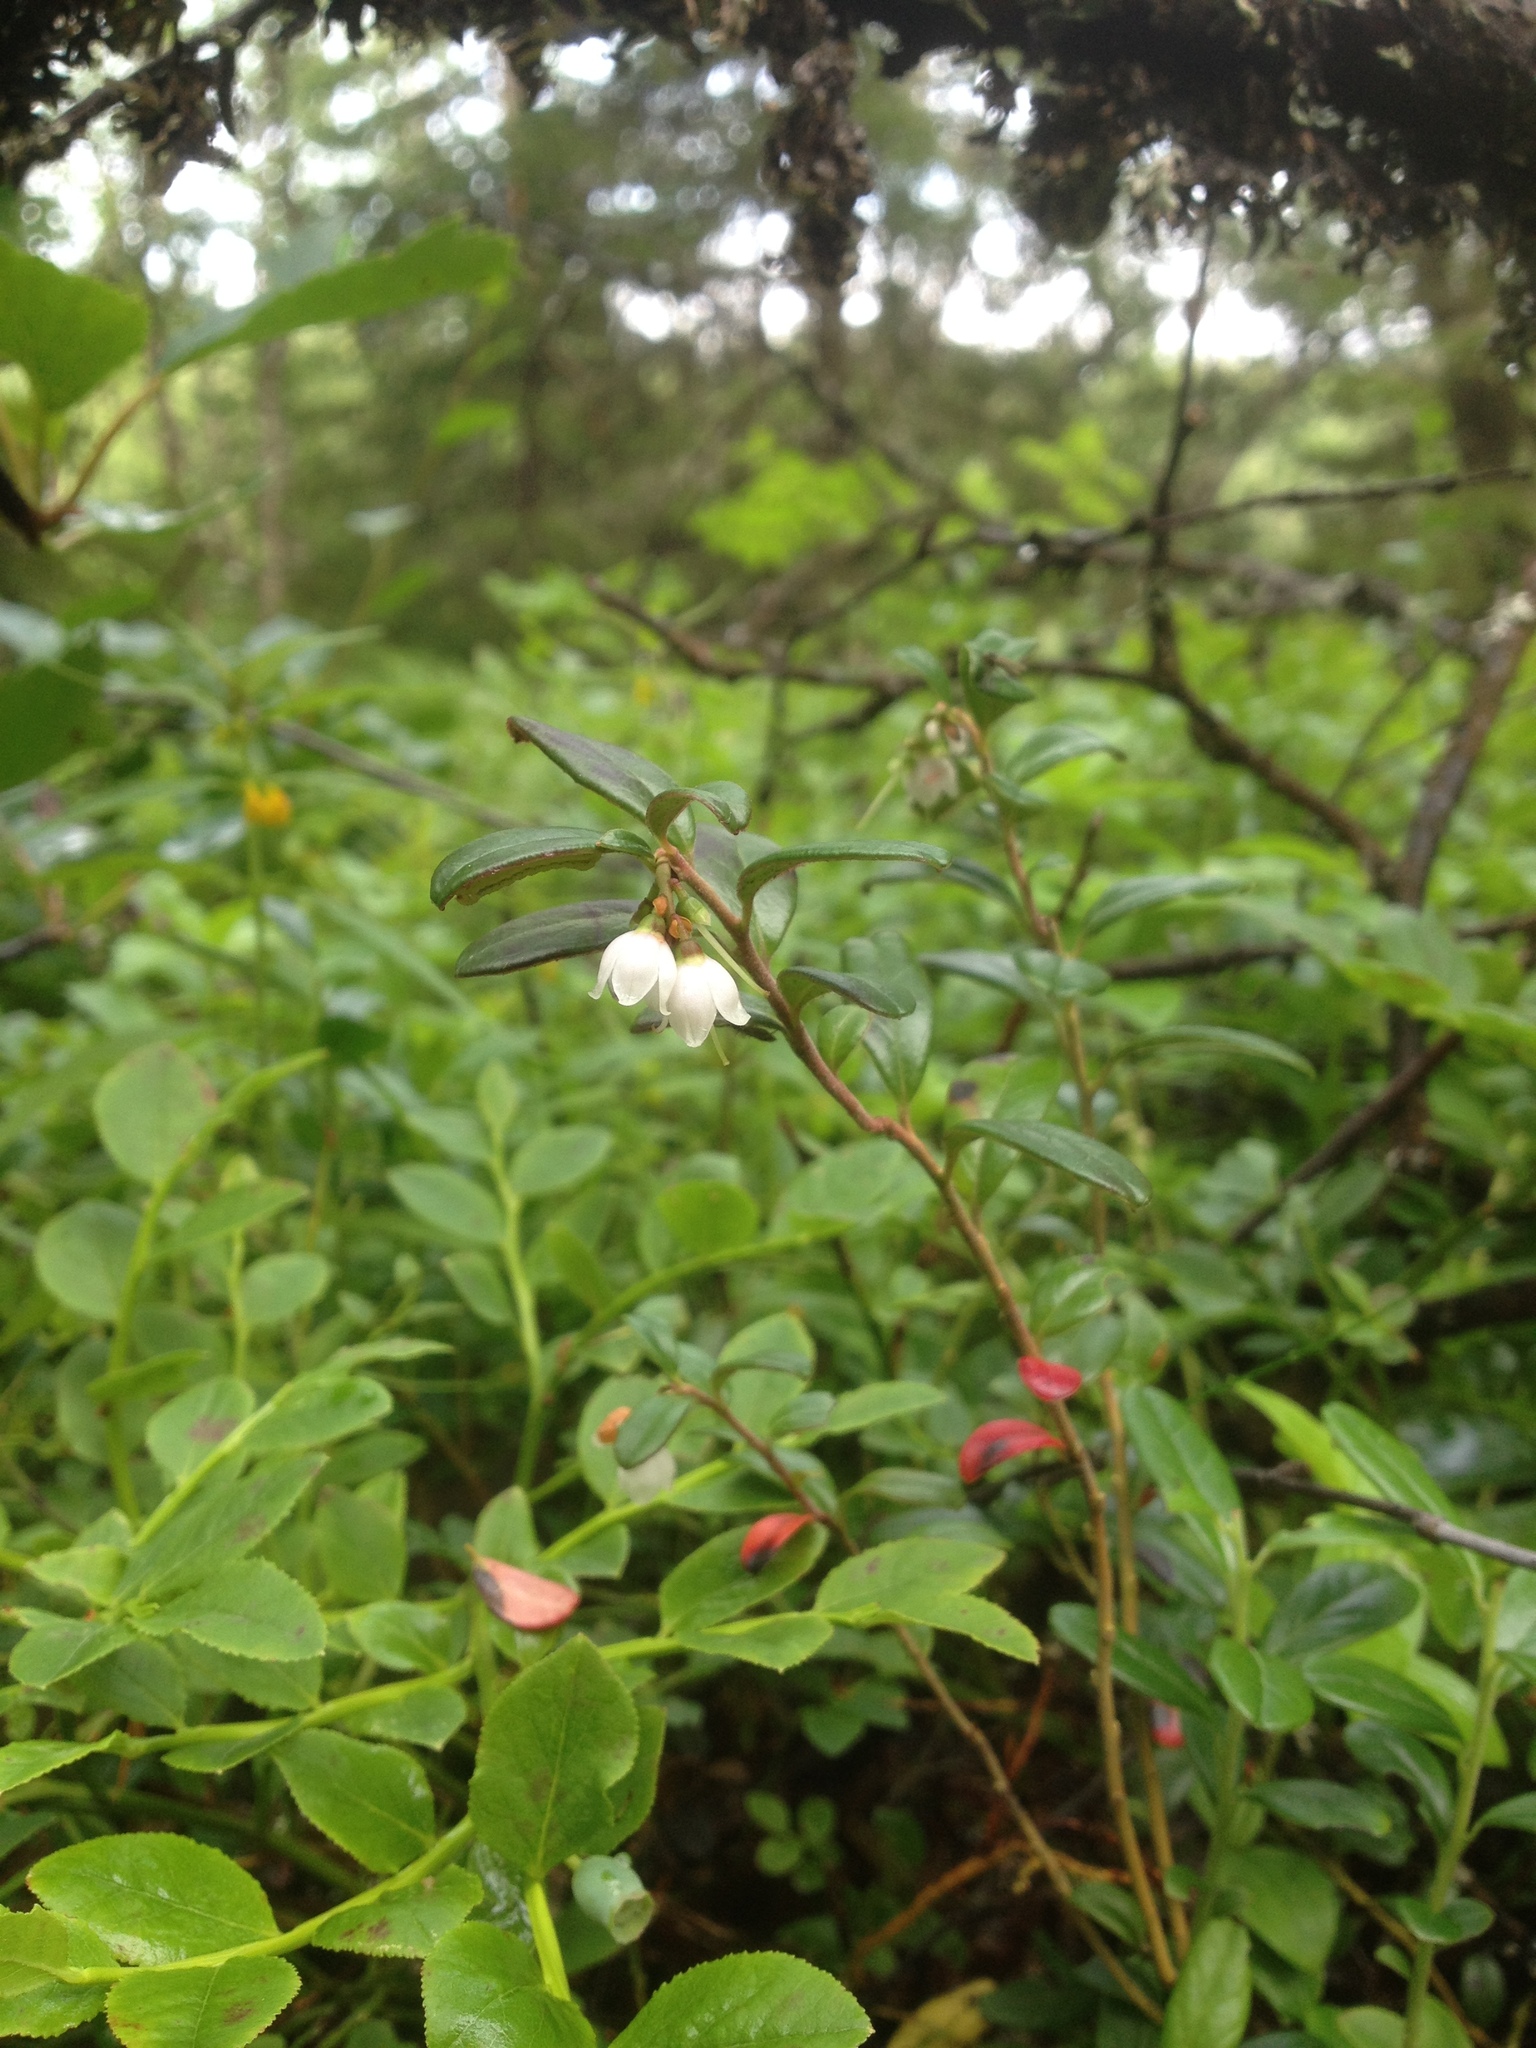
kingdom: Plantae
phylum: Tracheophyta
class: Magnoliopsida
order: Ericales
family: Ericaceae
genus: Vaccinium
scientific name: Vaccinium vitis-idaea
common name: Cowberry
